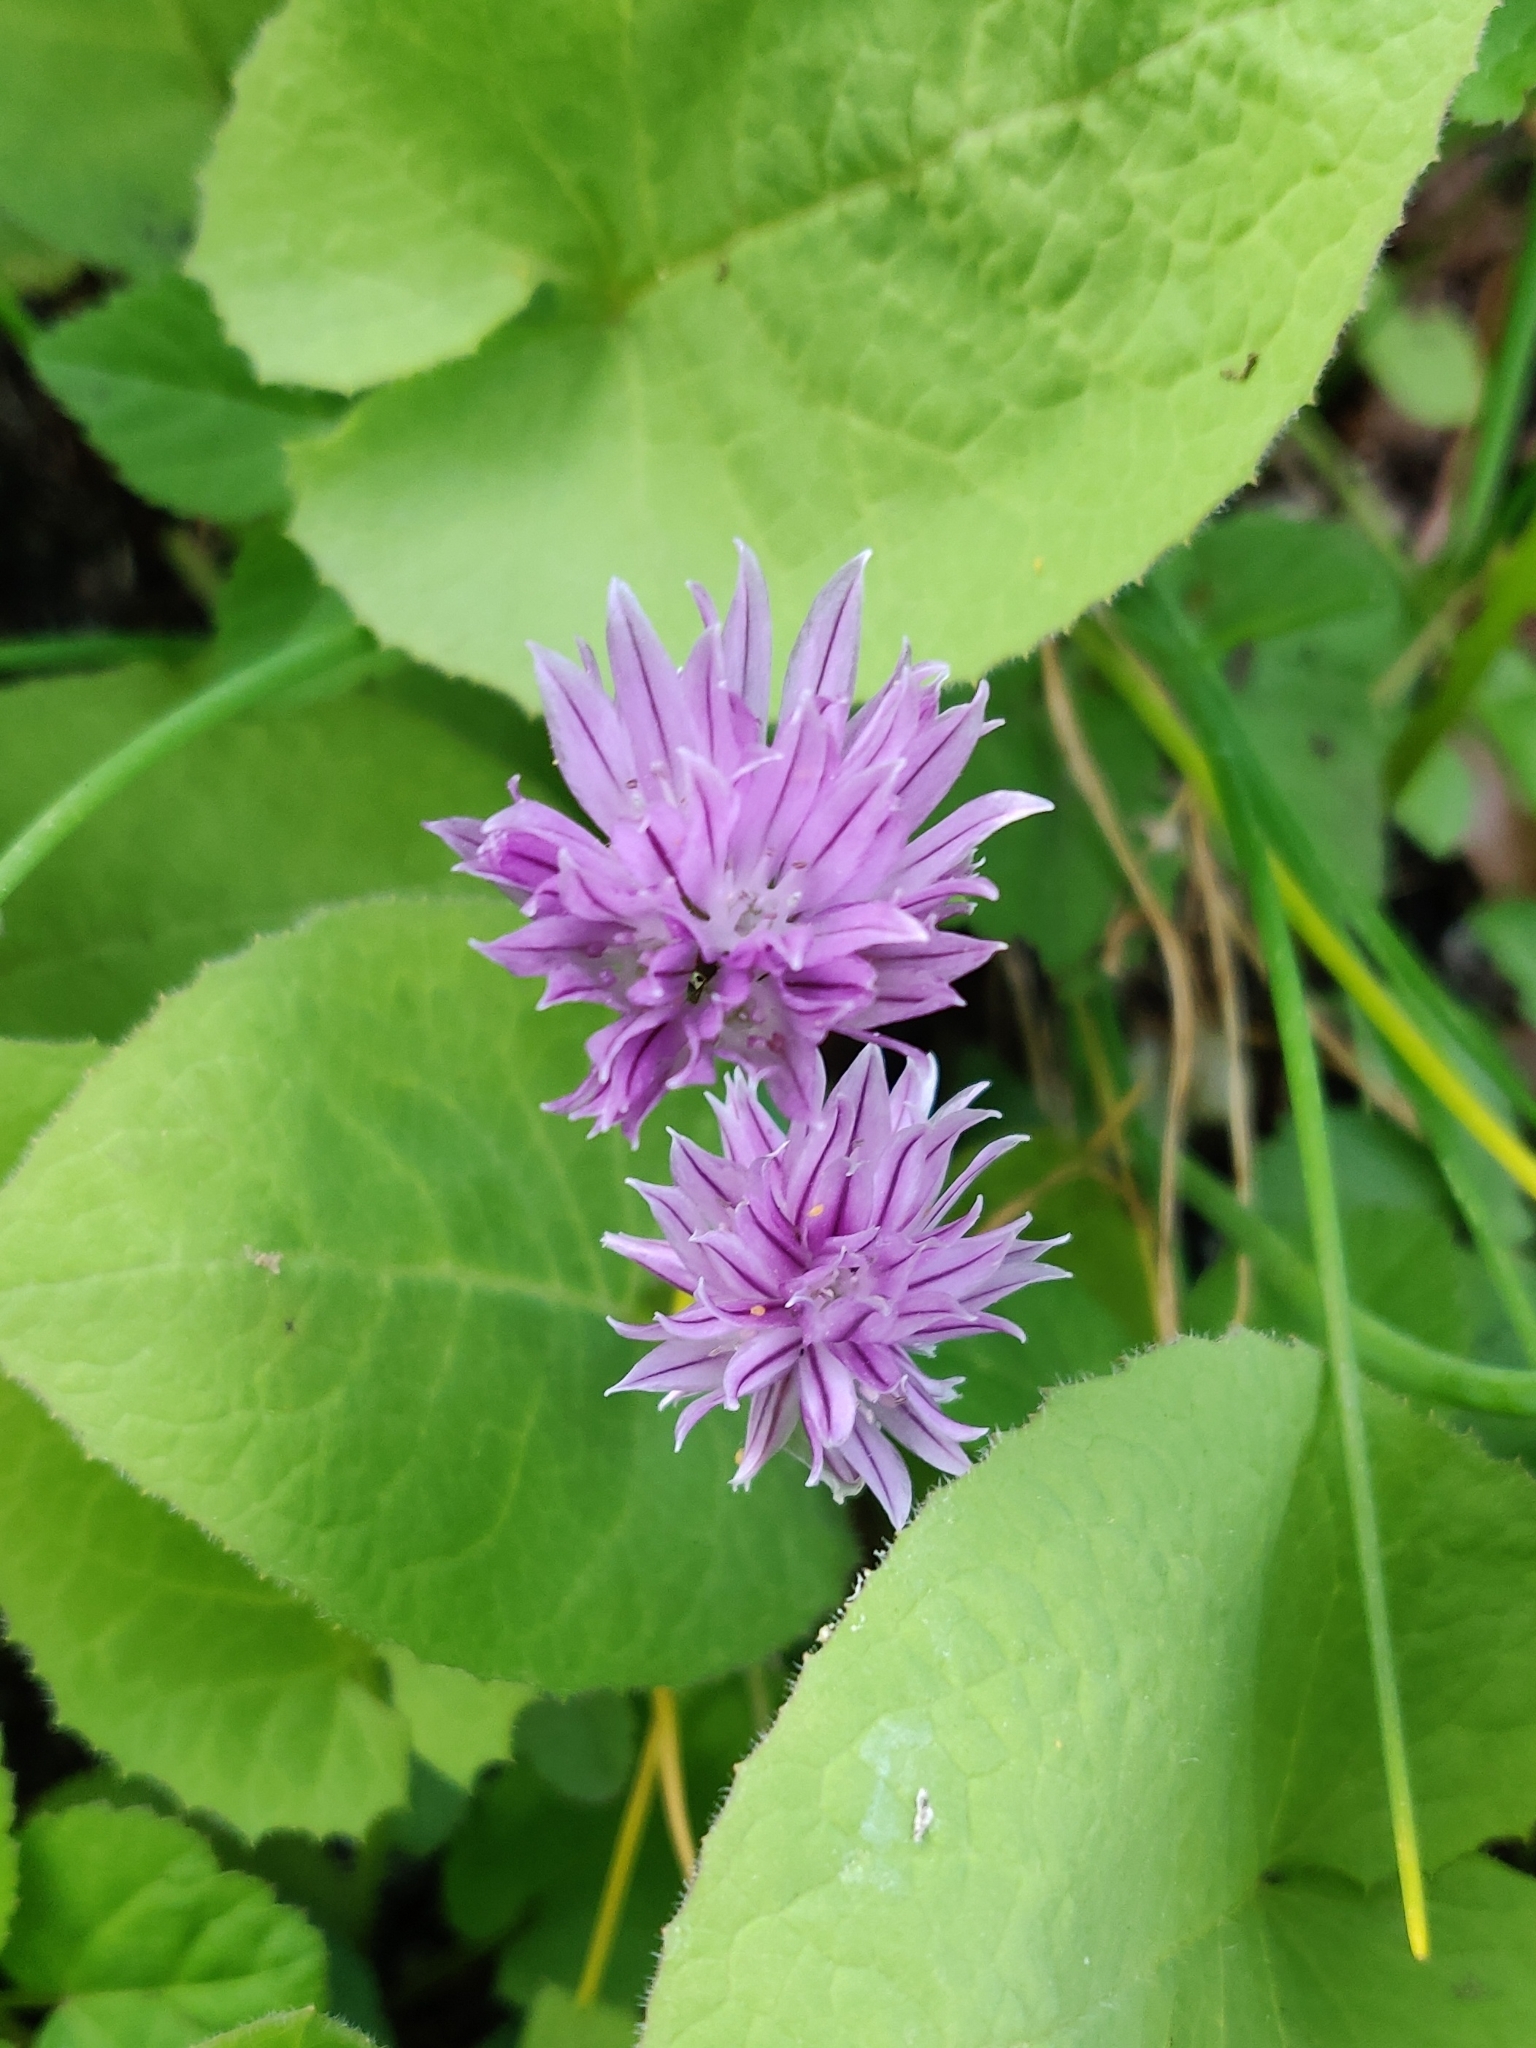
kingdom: Plantae
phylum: Tracheophyta
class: Liliopsida
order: Asparagales
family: Amaryllidaceae
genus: Allium
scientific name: Allium schoenoprasum
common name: Chives
